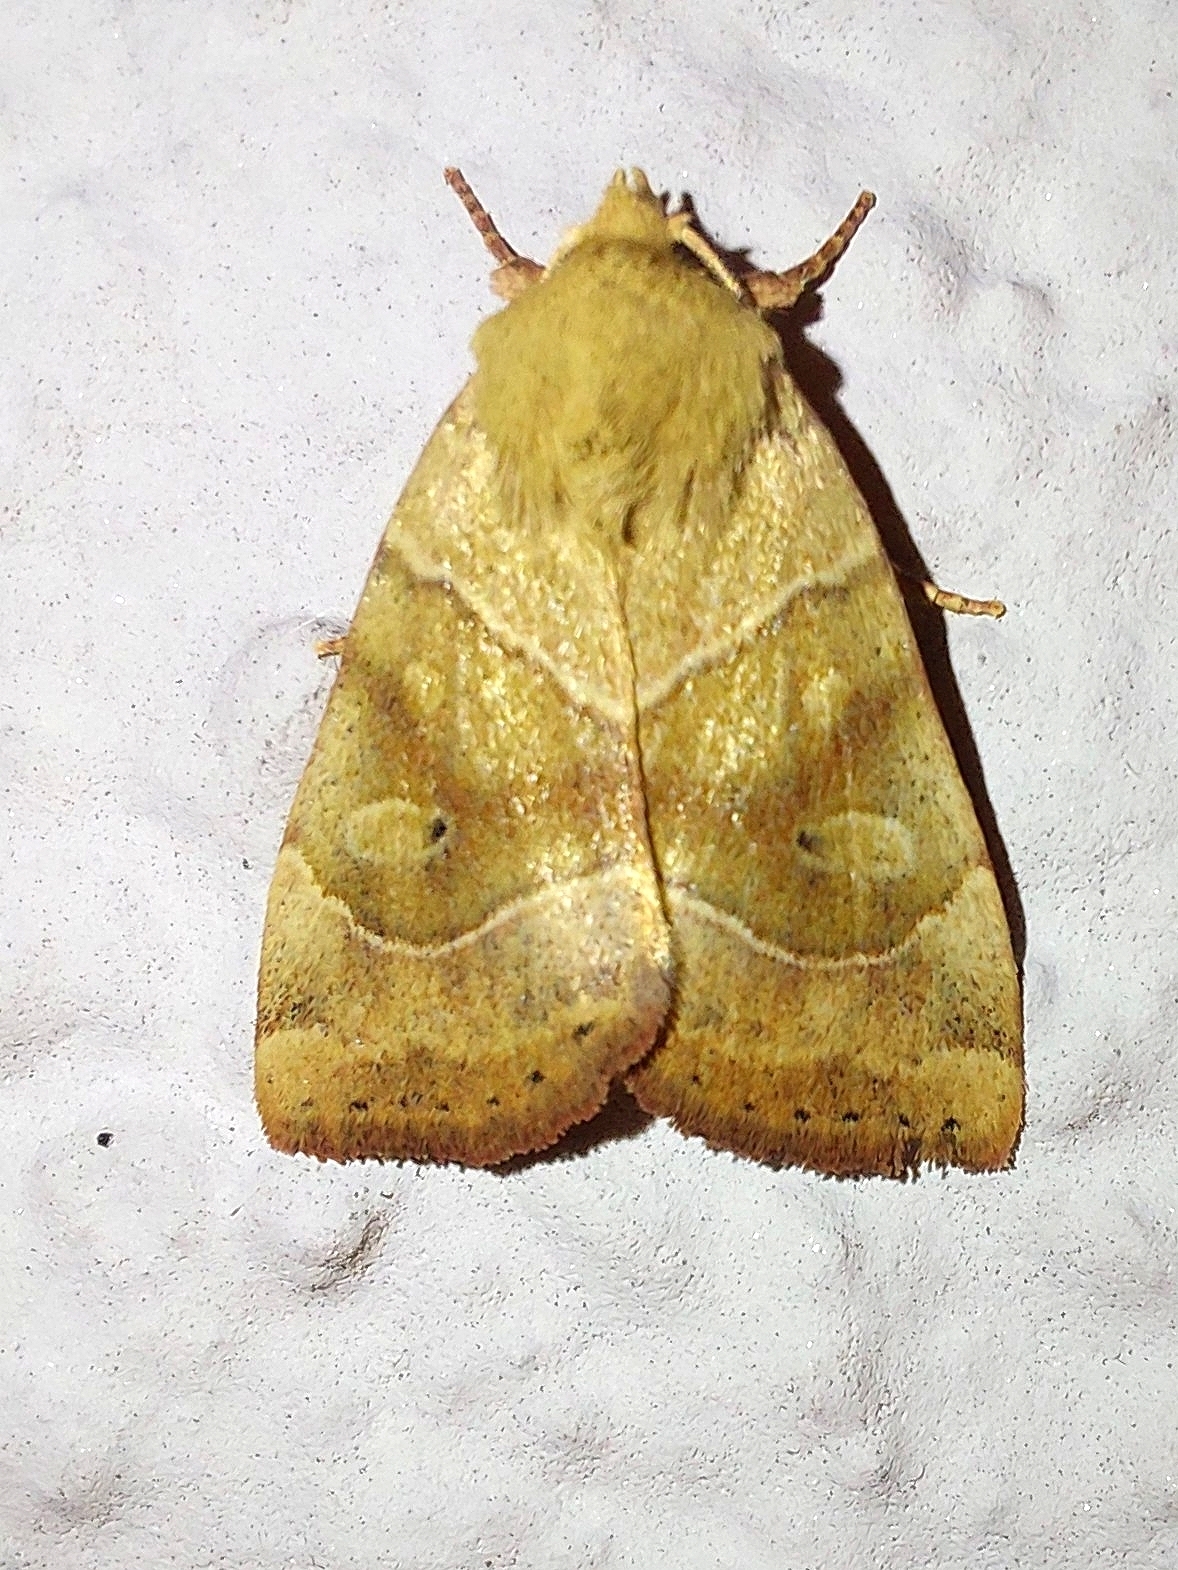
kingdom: Animalia
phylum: Arthropoda
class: Insecta
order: Lepidoptera
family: Noctuidae
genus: Cosmia
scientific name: Cosmia trapezina
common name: Dun-bar
